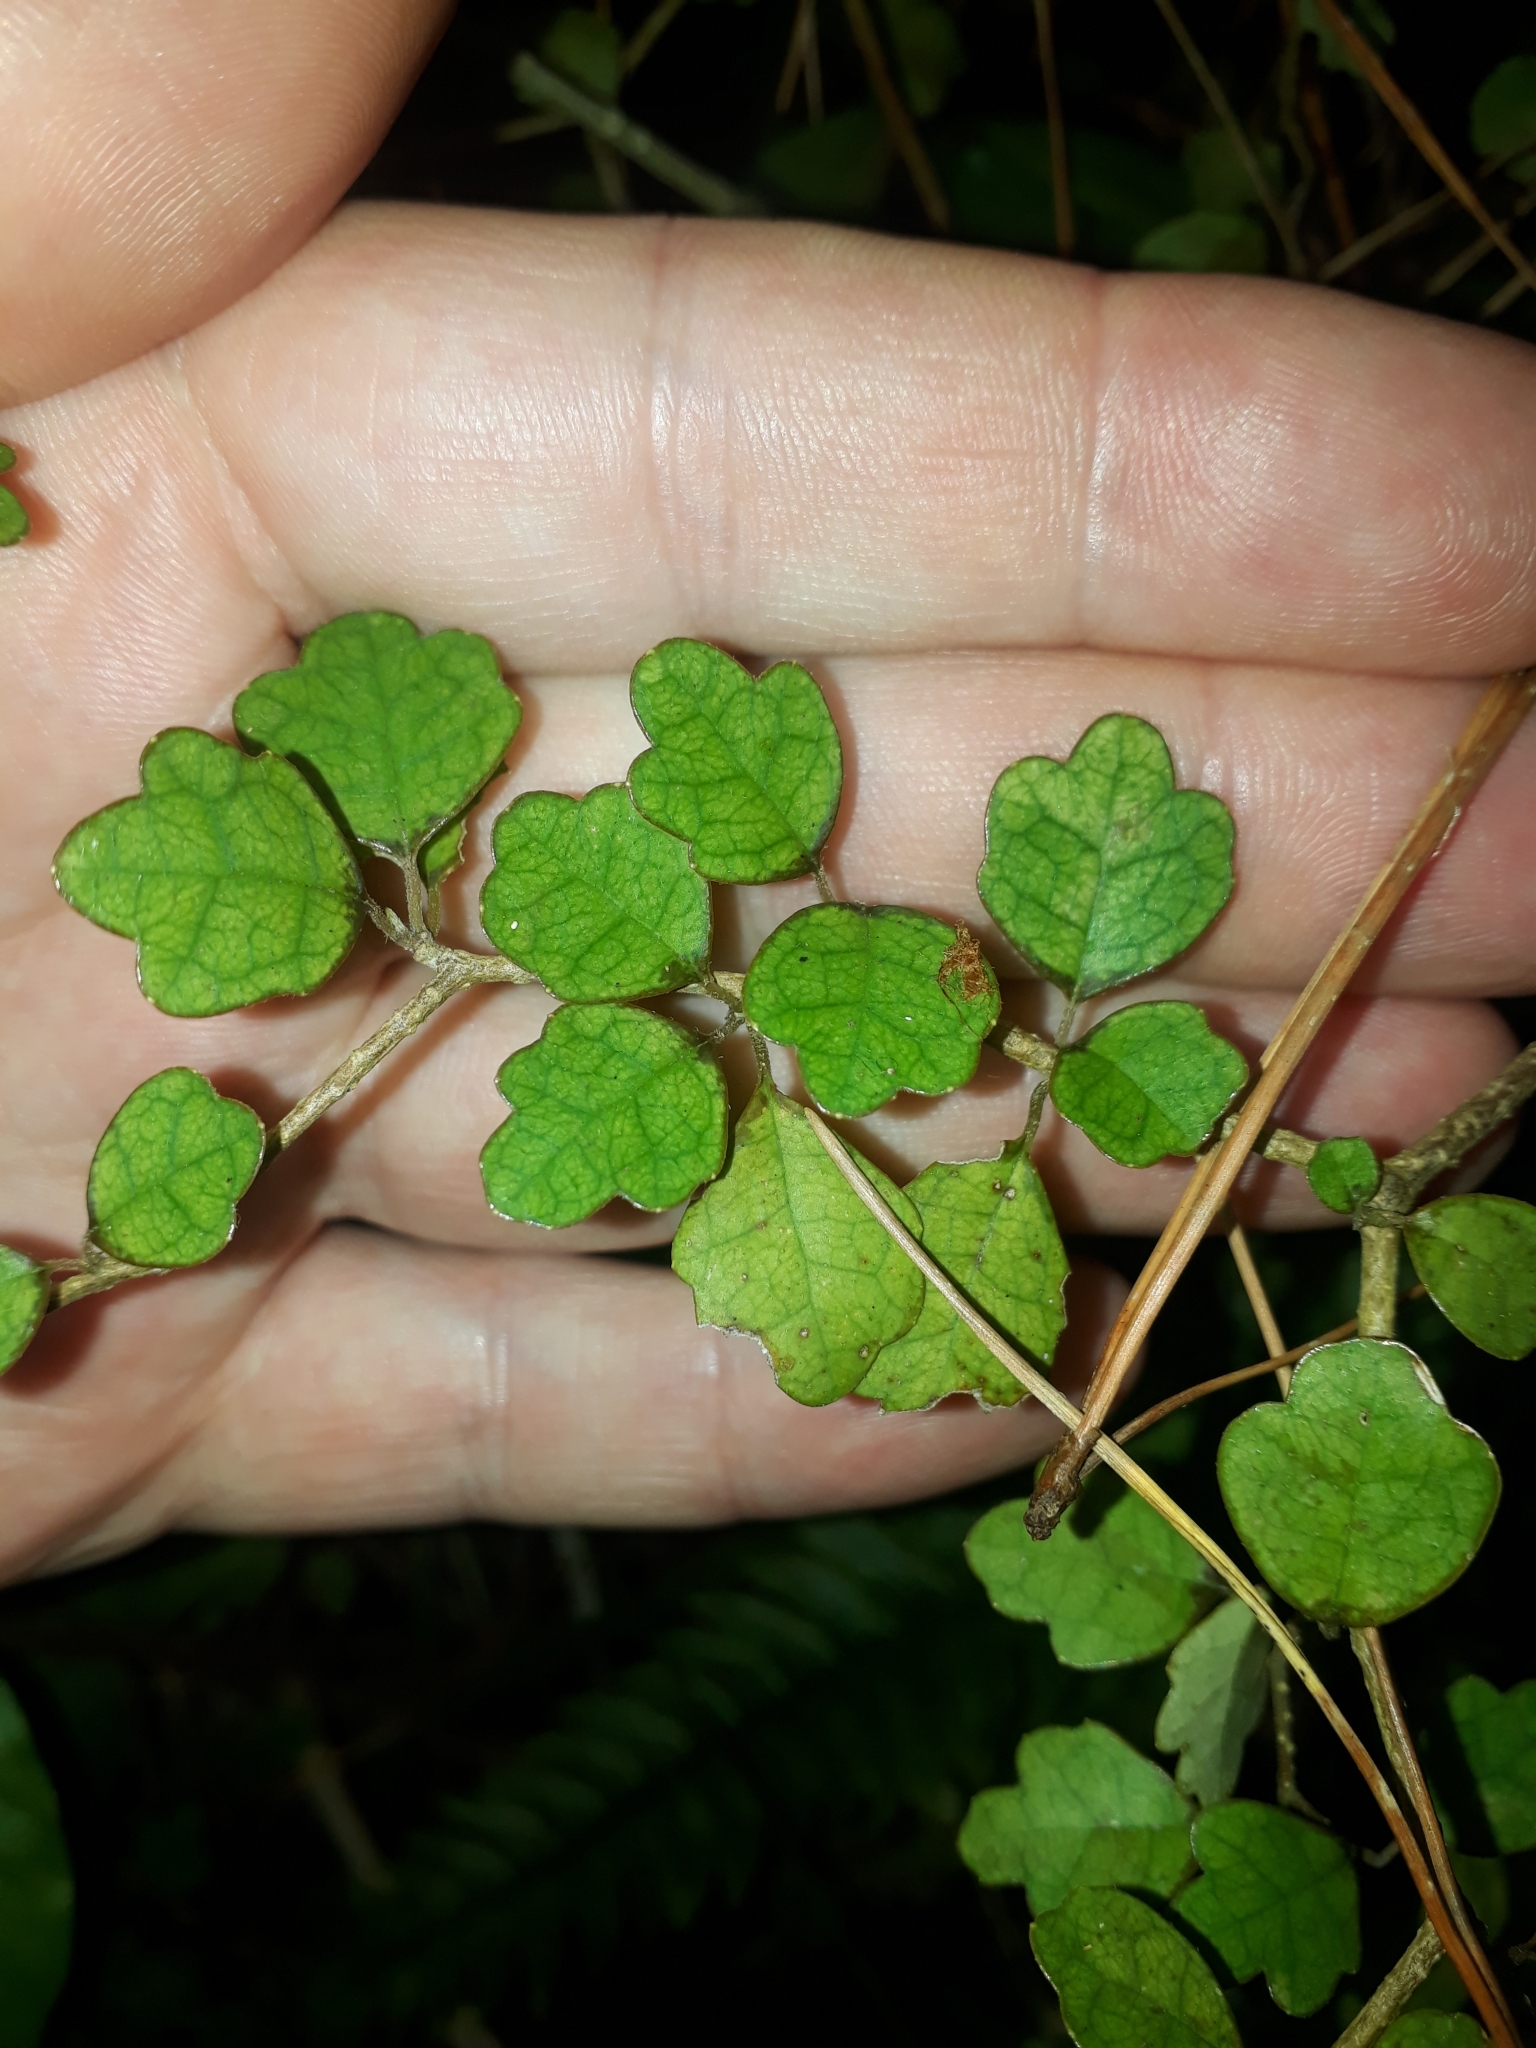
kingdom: Plantae
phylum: Tracheophyta
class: Magnoliopsida
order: Apiales
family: Pennantiaceae
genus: Pennantia
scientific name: Pennantia corymbosa
